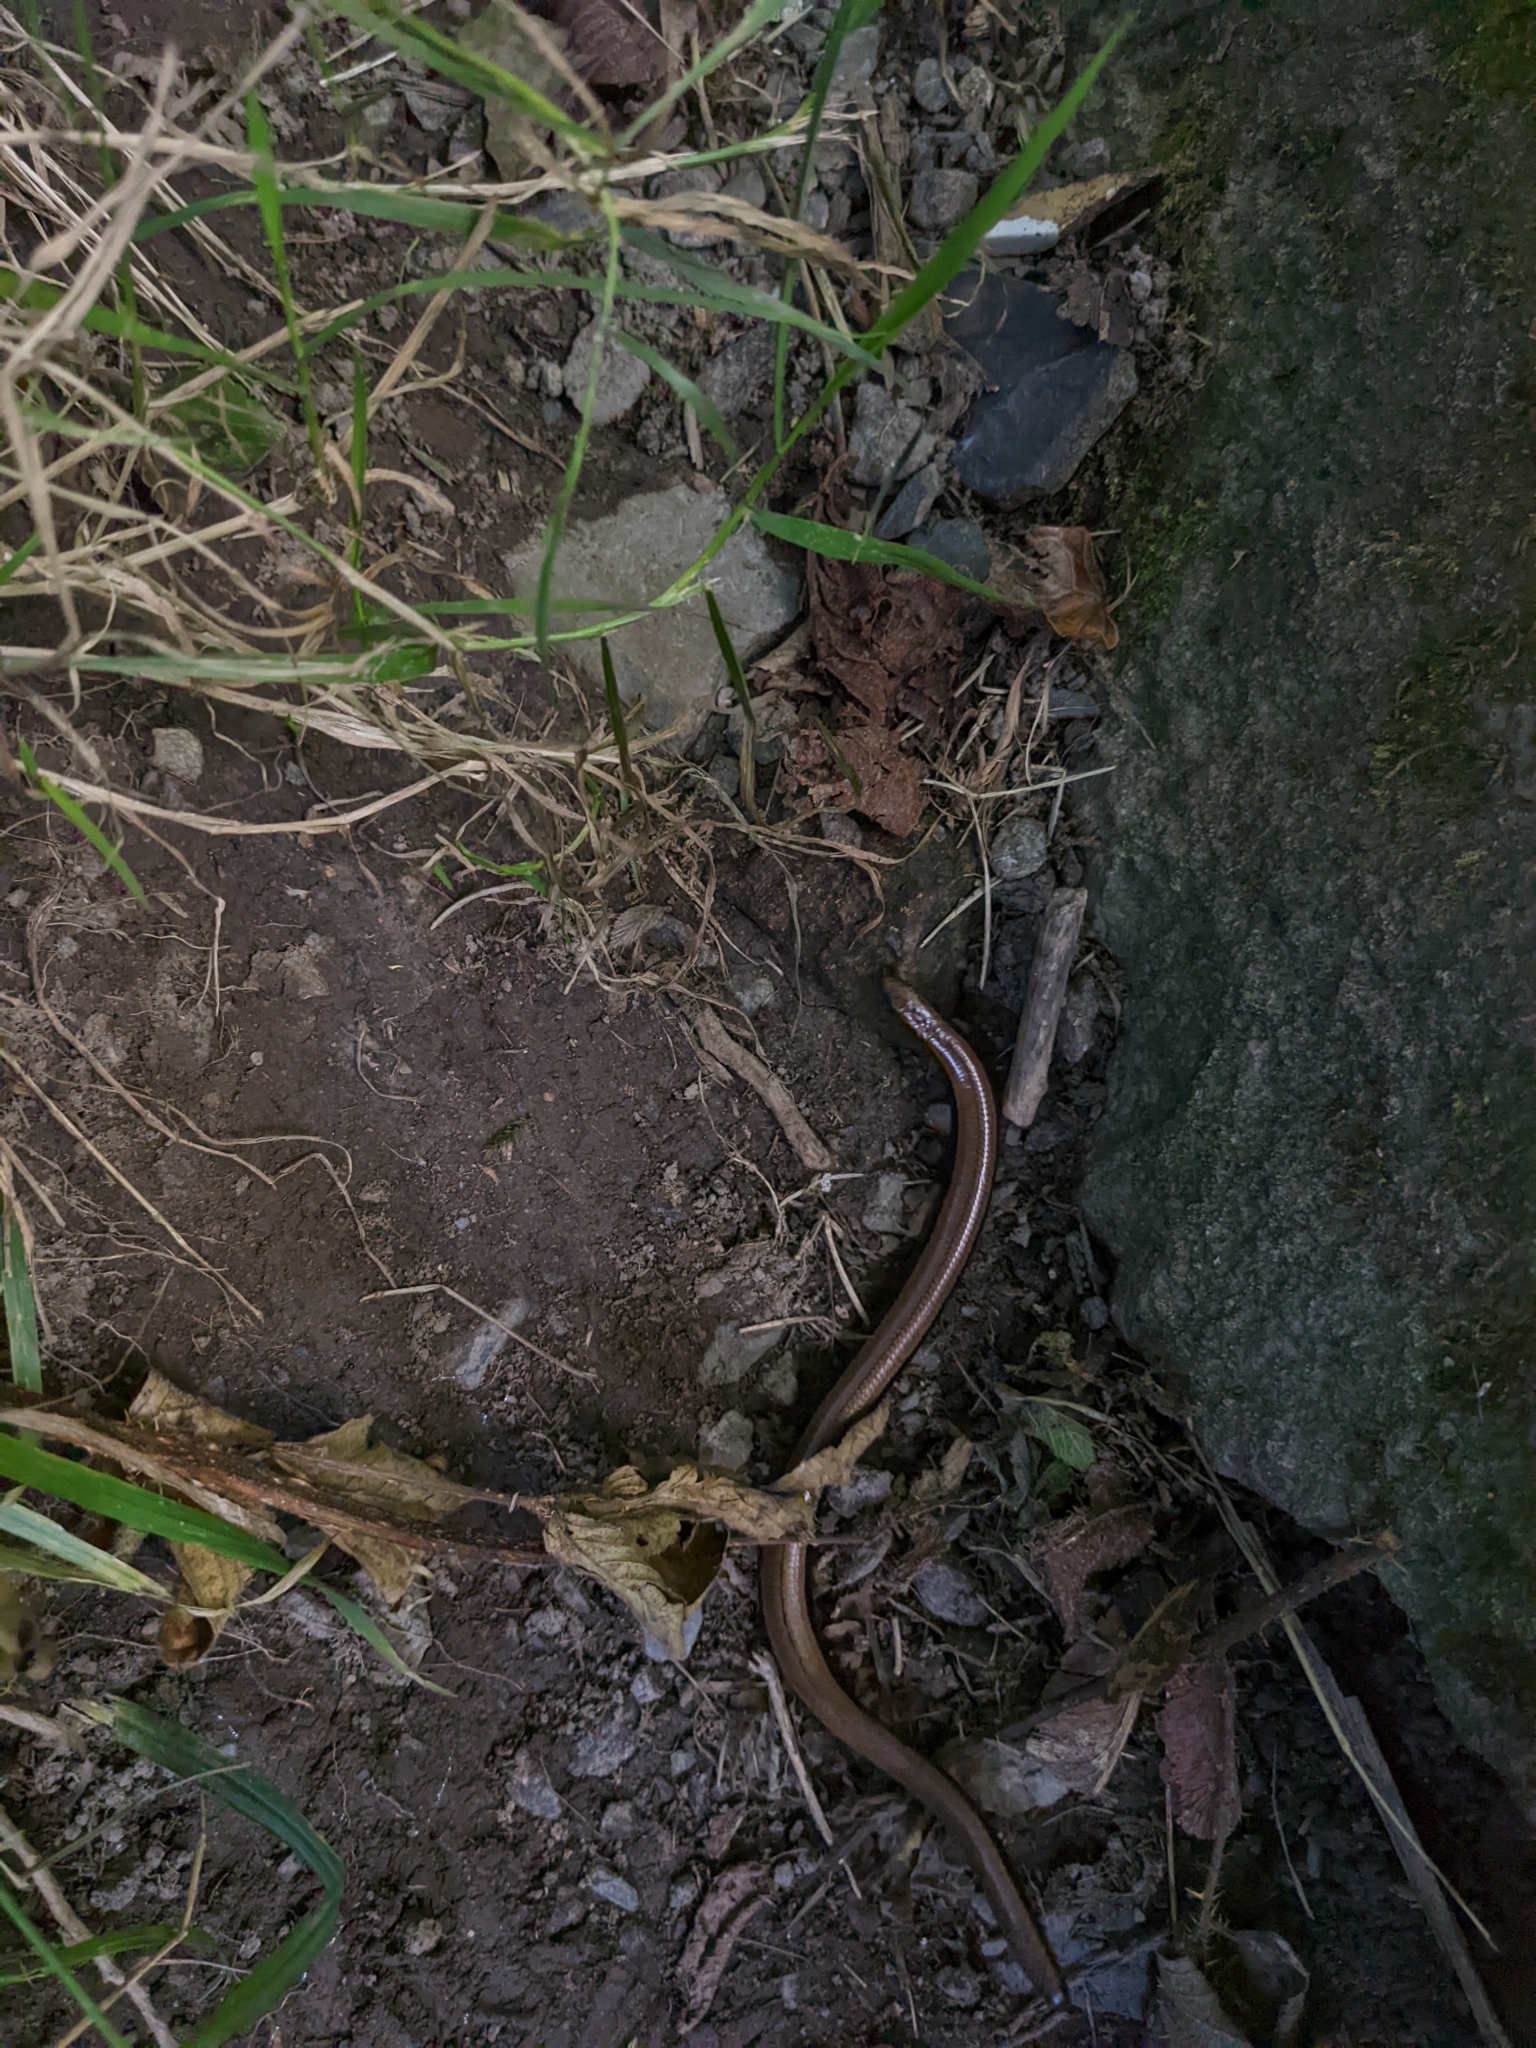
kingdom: Animalia
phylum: Chordata
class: Squamata
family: Anguidae
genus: Anguis
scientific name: Anguis fragilis
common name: Slow worm
